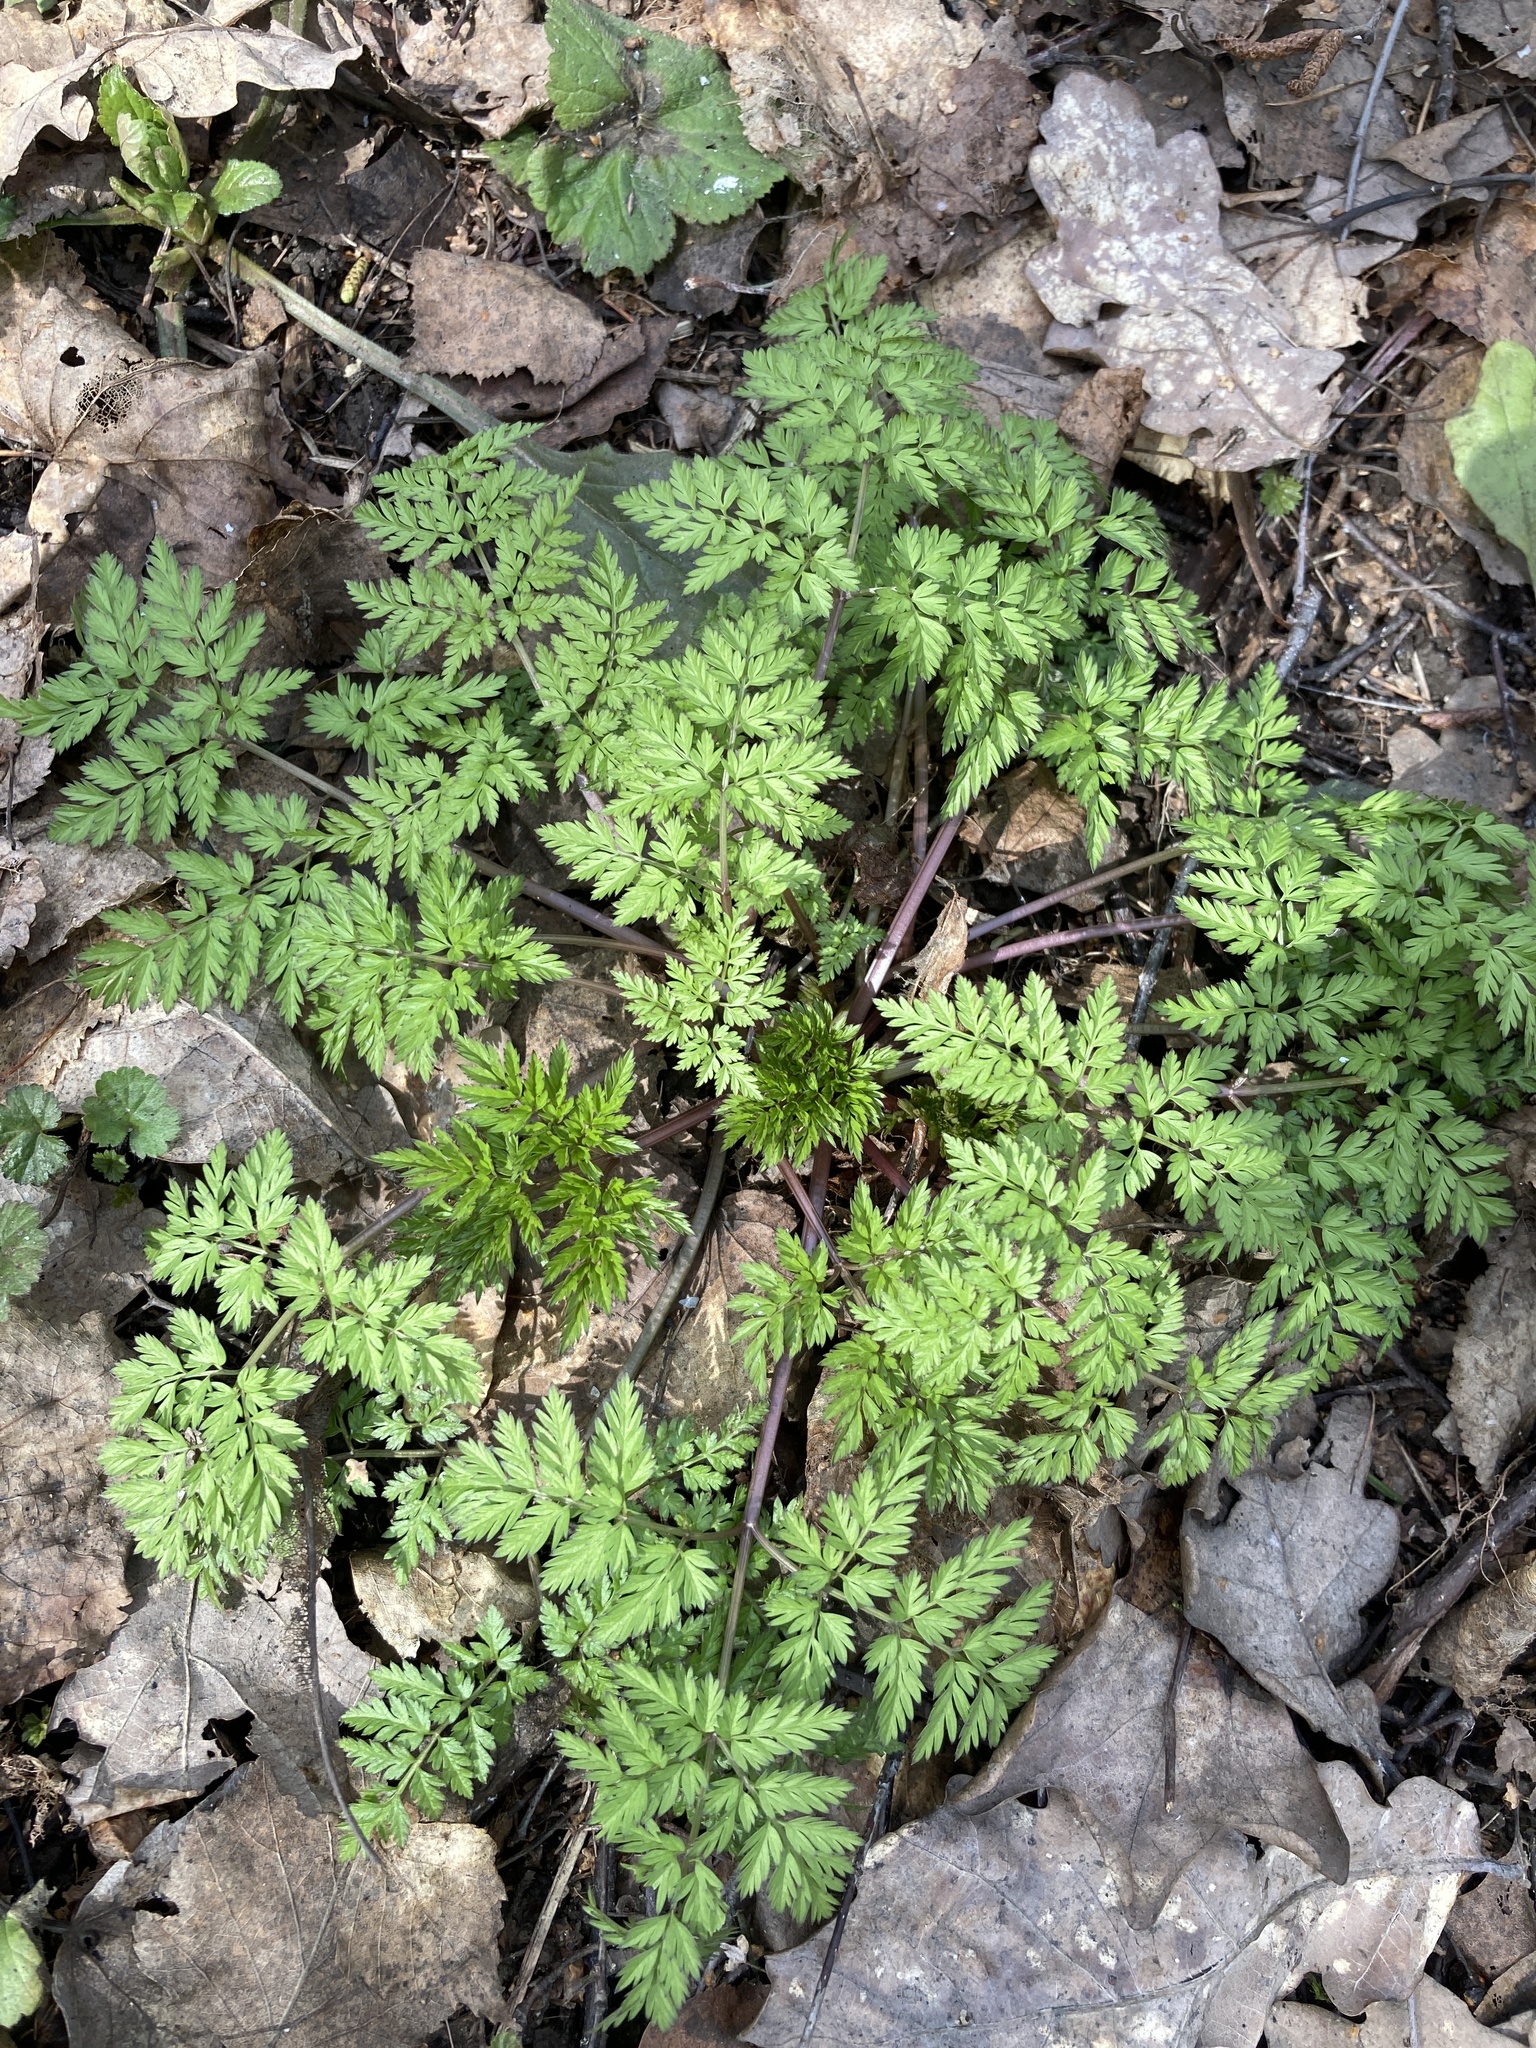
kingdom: Plantae
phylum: Tracheophyta
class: Magnoliopsida
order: Apiales
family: Apiaceae
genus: Anthriscus
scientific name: Anthriscus sylvestris
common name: Cow parsley
